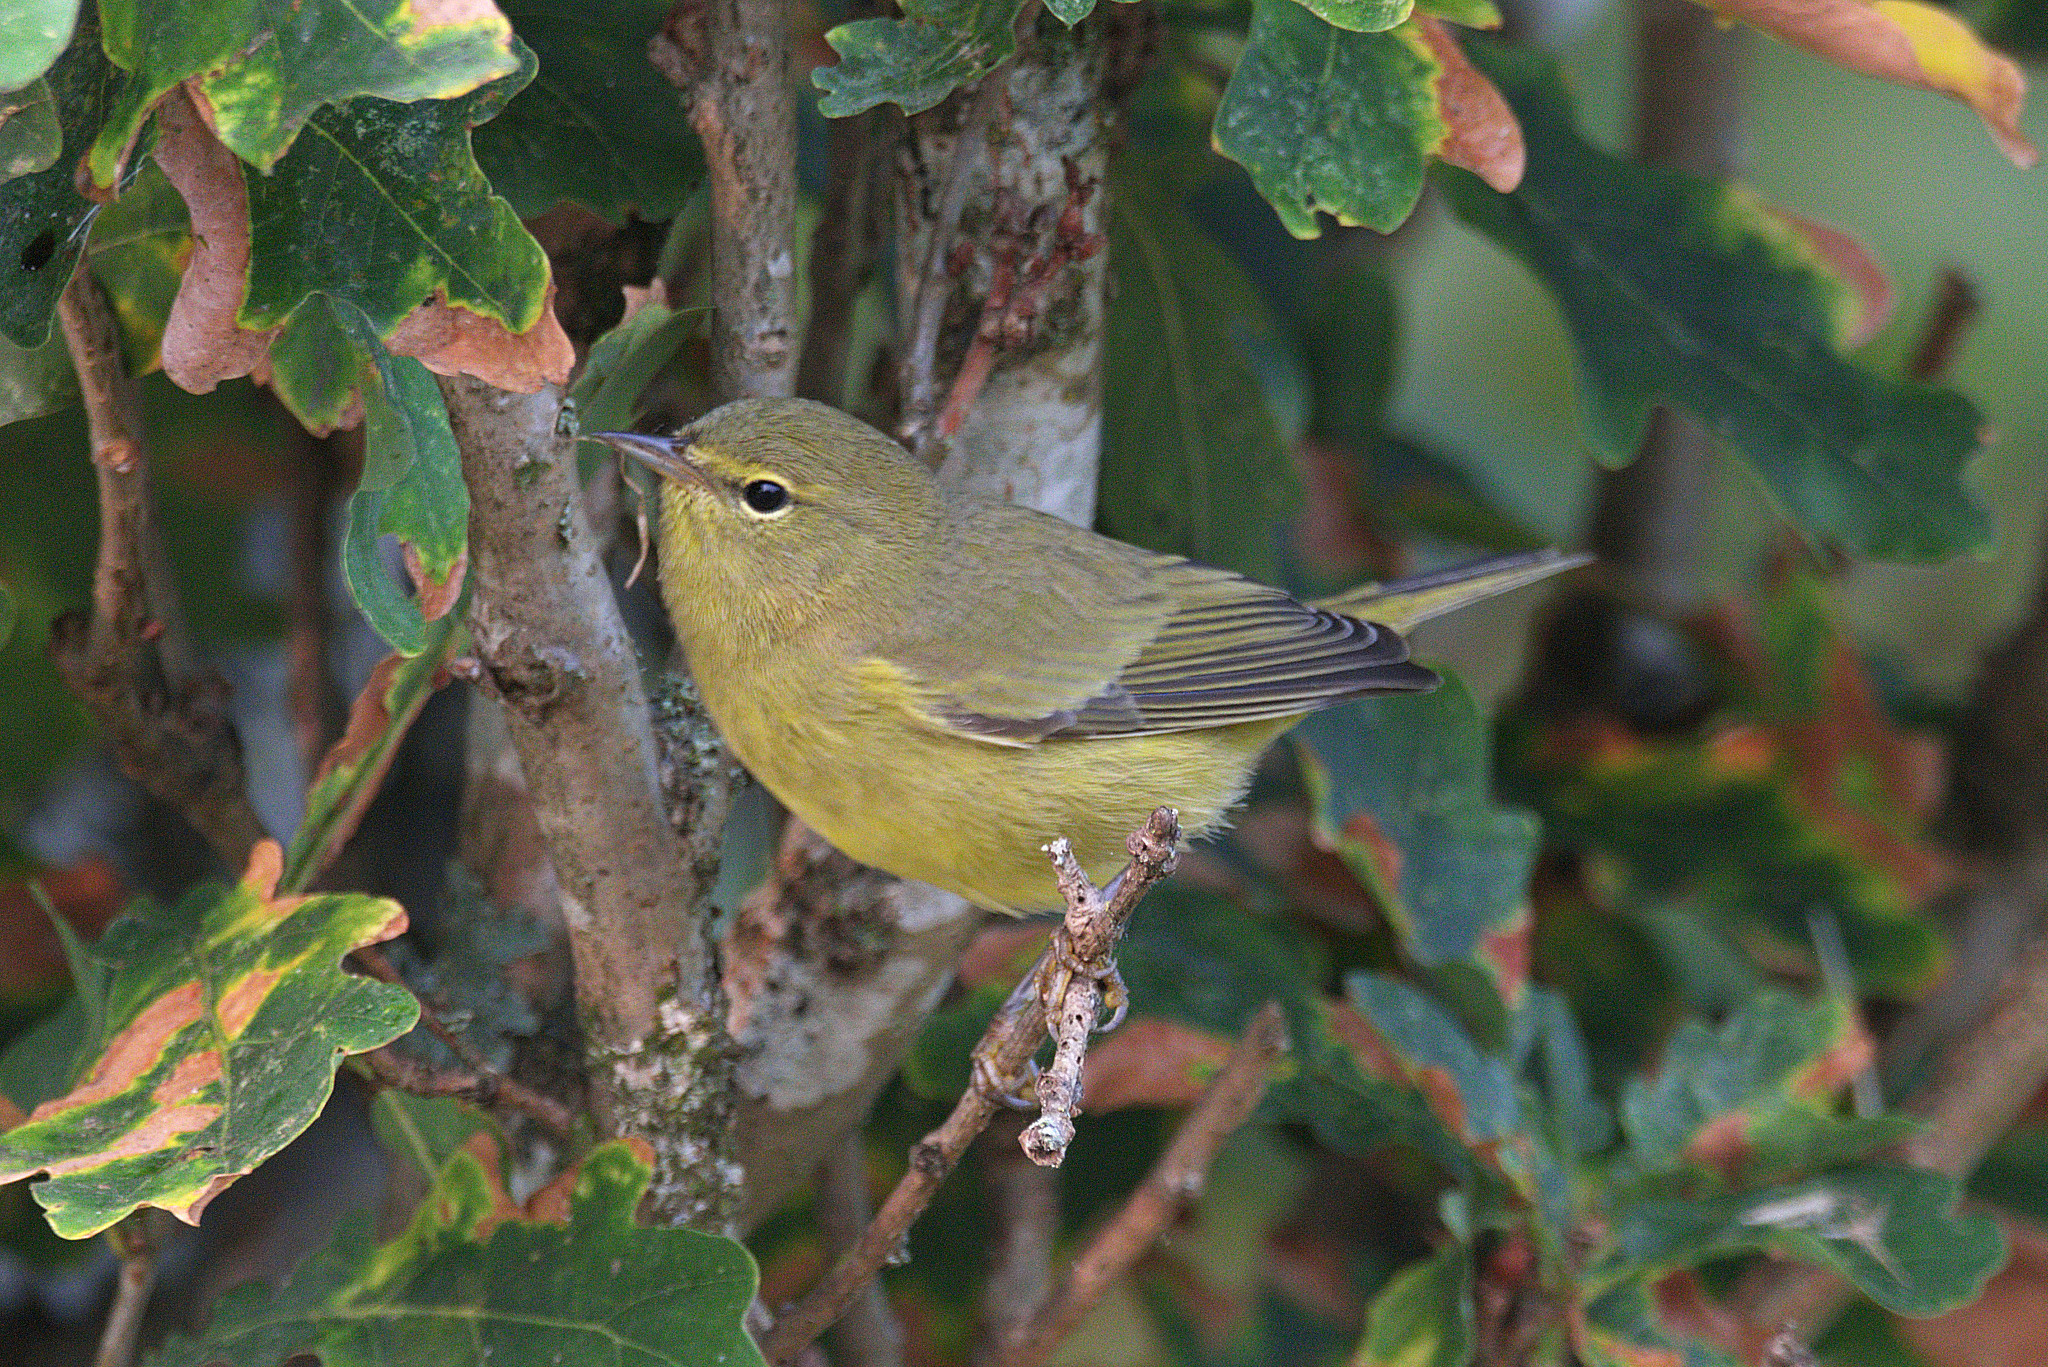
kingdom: Animalia
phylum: Chordata
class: Aves
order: Passeriformes
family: Parulidae
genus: Leiothlypis
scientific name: Leiothlypis celata
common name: Orange-crowned warbler
